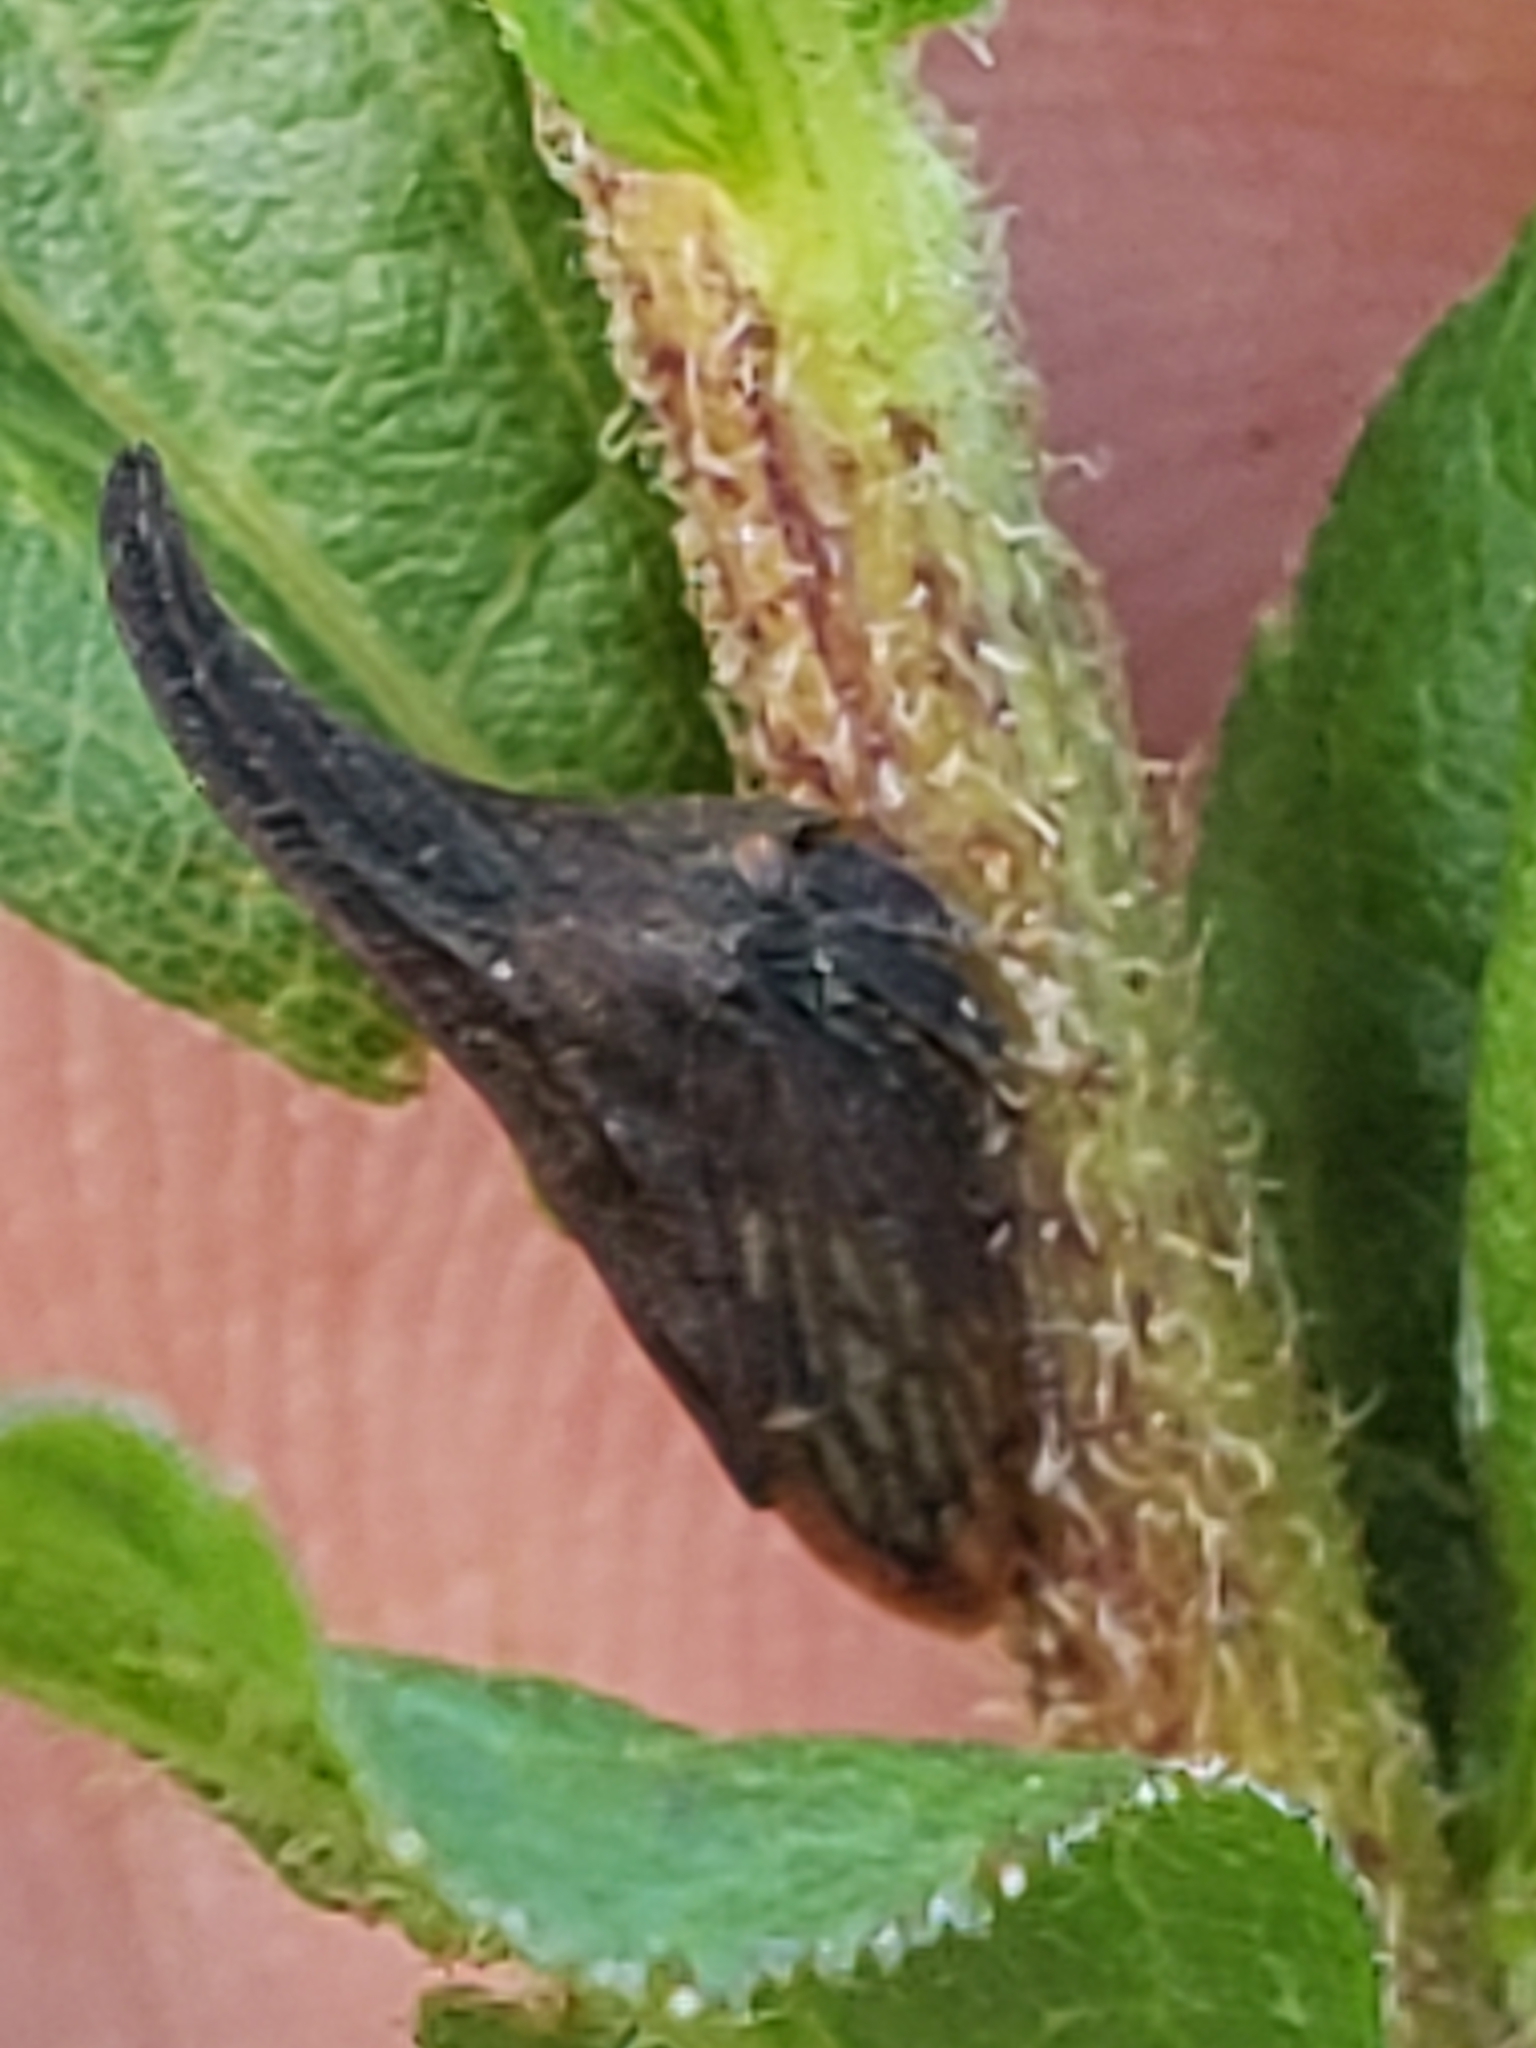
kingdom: Animalia
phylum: Arthropoda
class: Insecta
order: Hemiptera
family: Membracidae
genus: Enchenopa
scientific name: Enchenopa latipes
